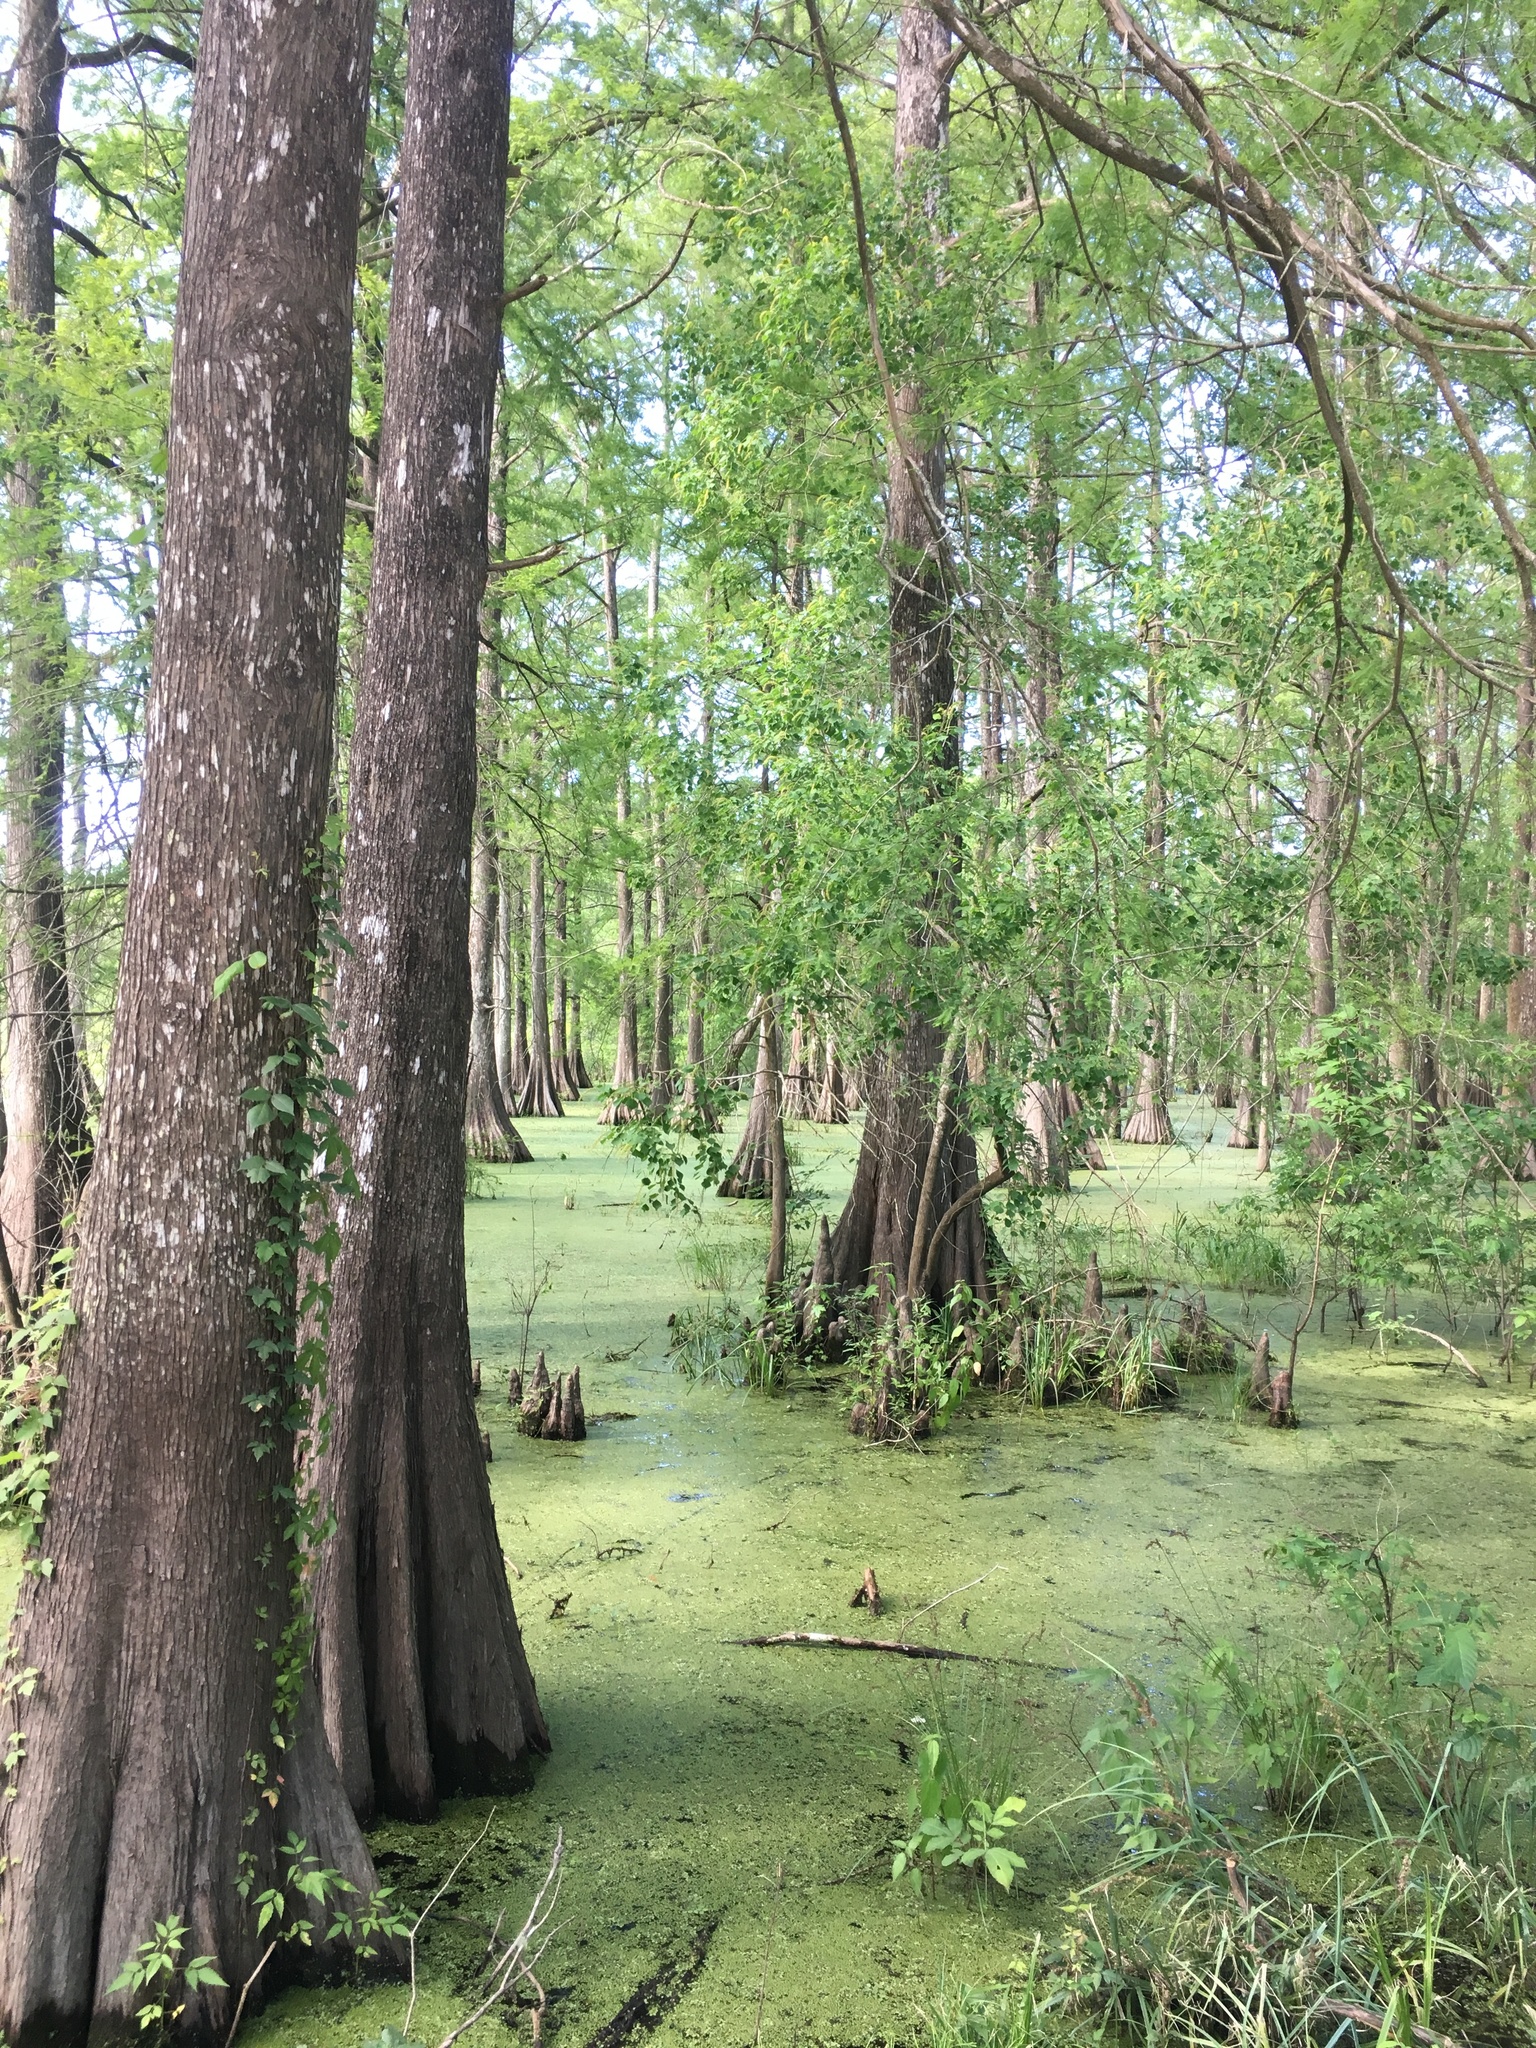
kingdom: Plantae
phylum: Tracheophyta
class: Pinopsida
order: Pinales
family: Cupressaceae
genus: Taxodium
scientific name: Taxodium distichum
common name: Bald cypress
